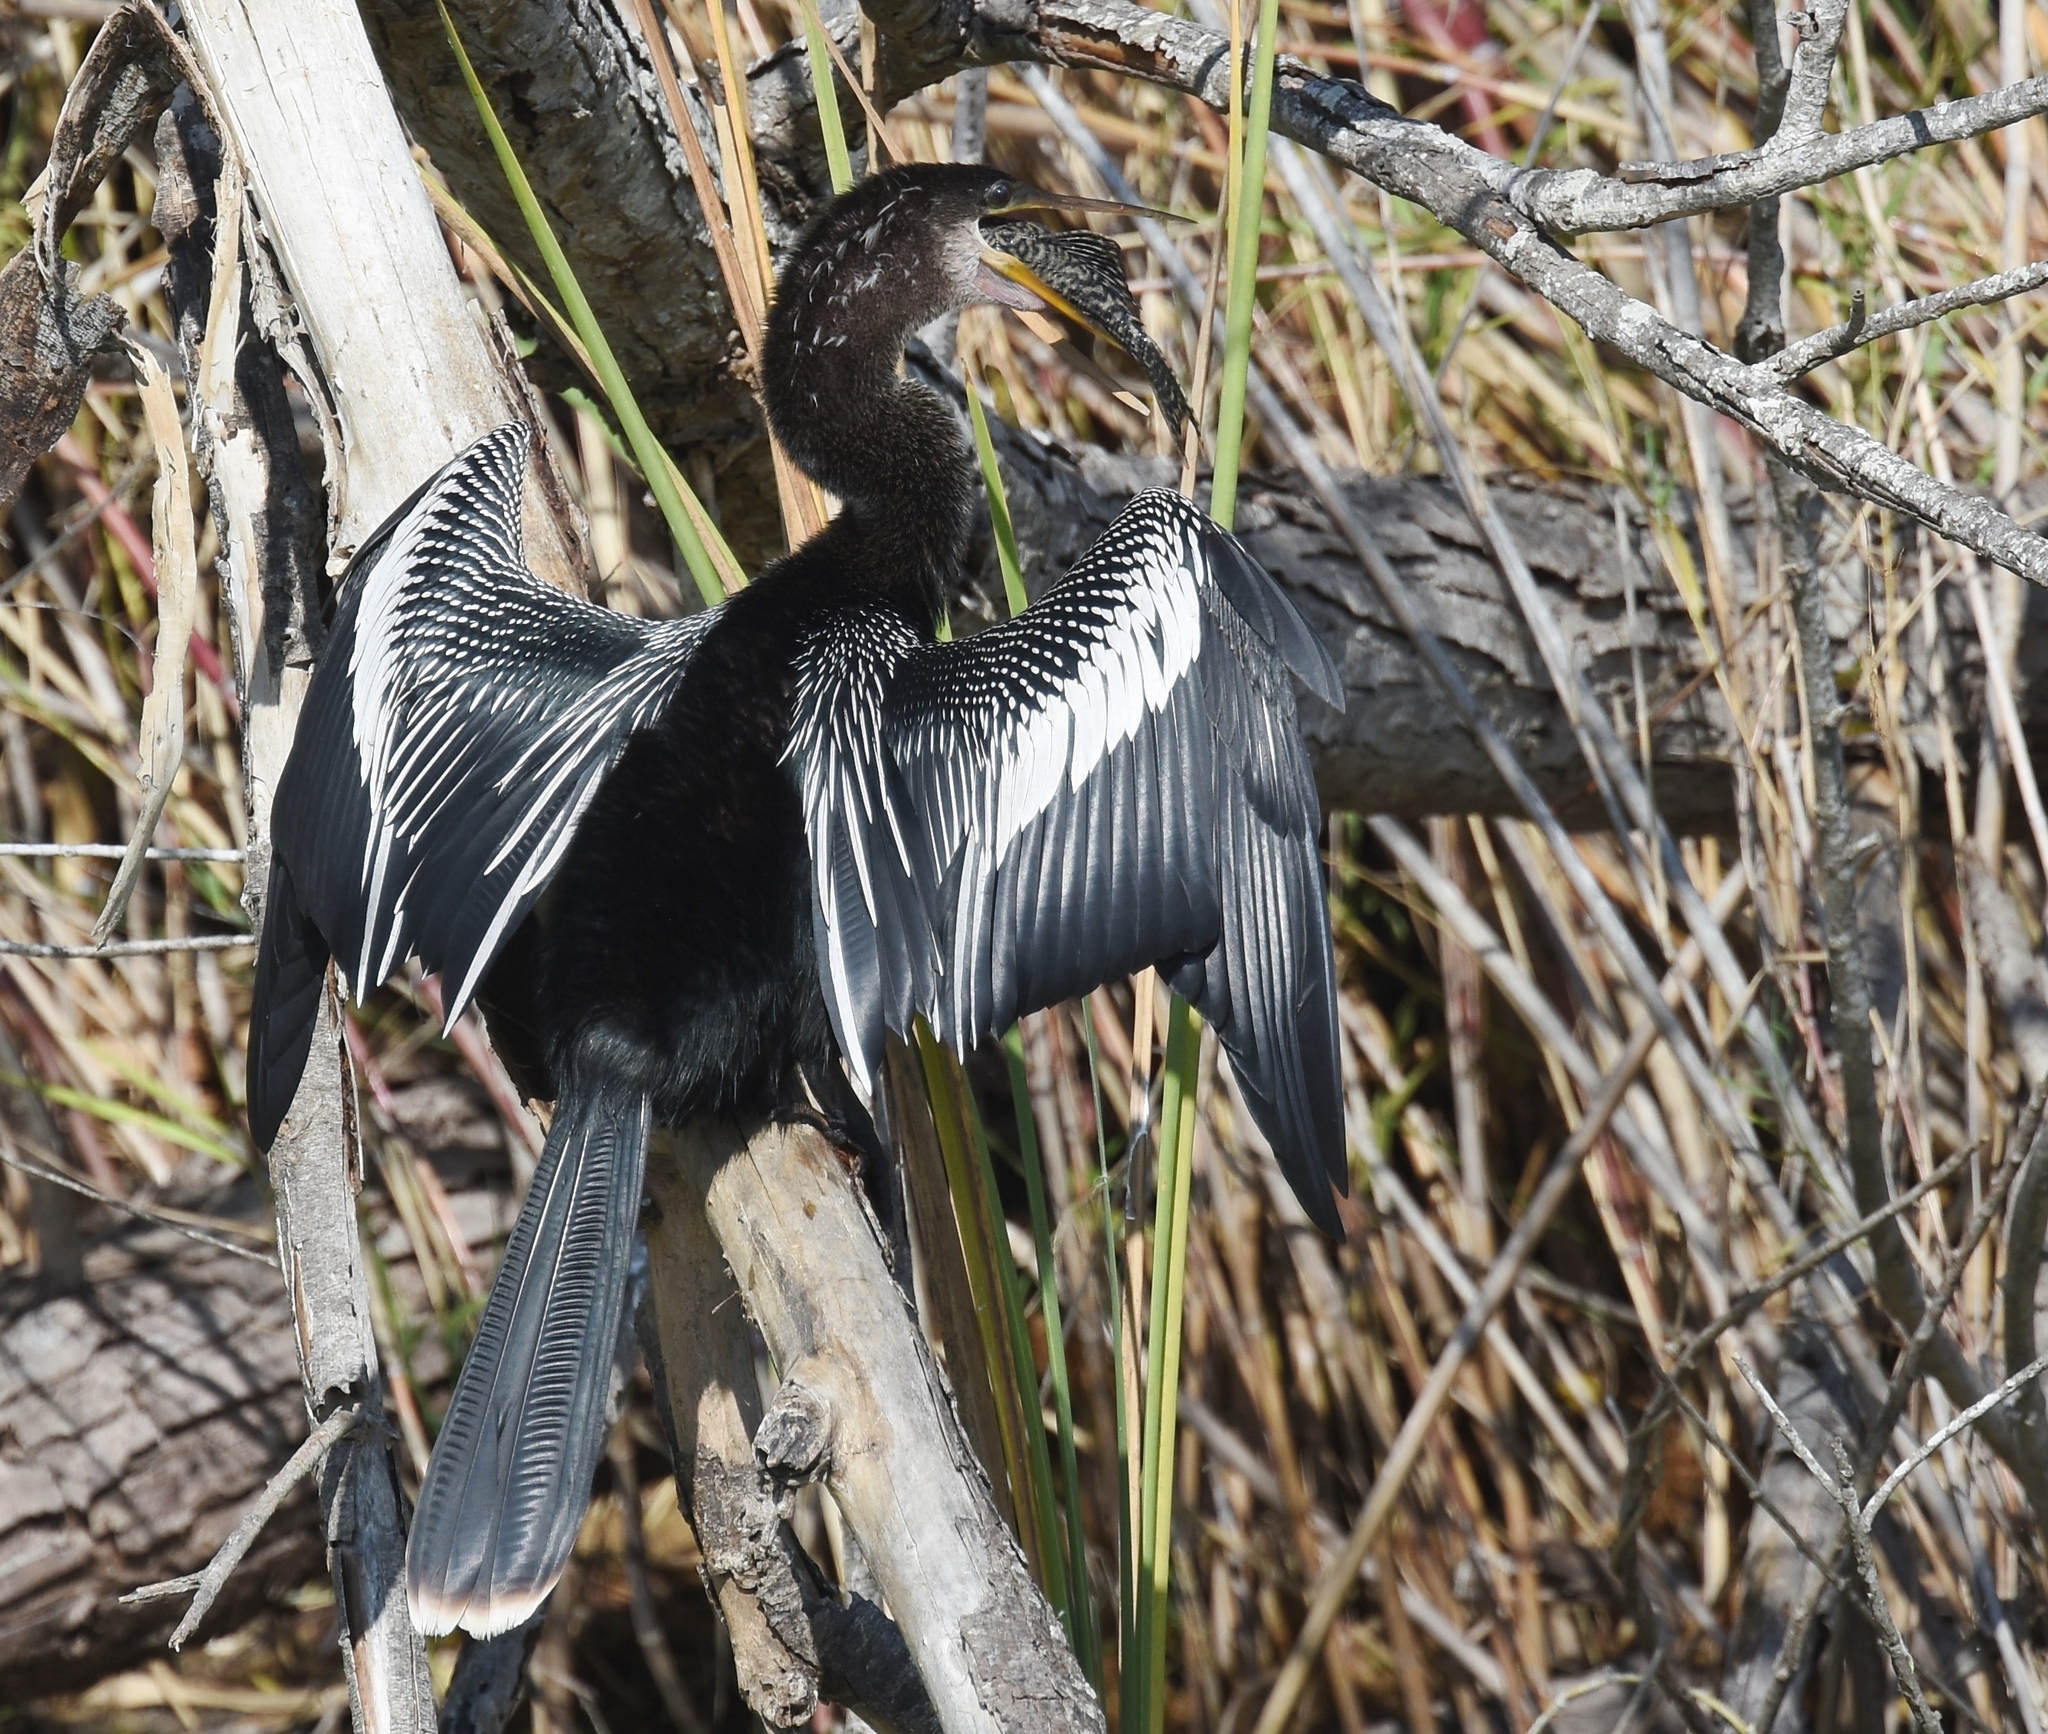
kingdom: Animalia
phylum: Chordata
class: Aves
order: Suliformes
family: Anhingidae
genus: Anhinga
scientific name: Anhinga anhinga
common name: Anhinga
